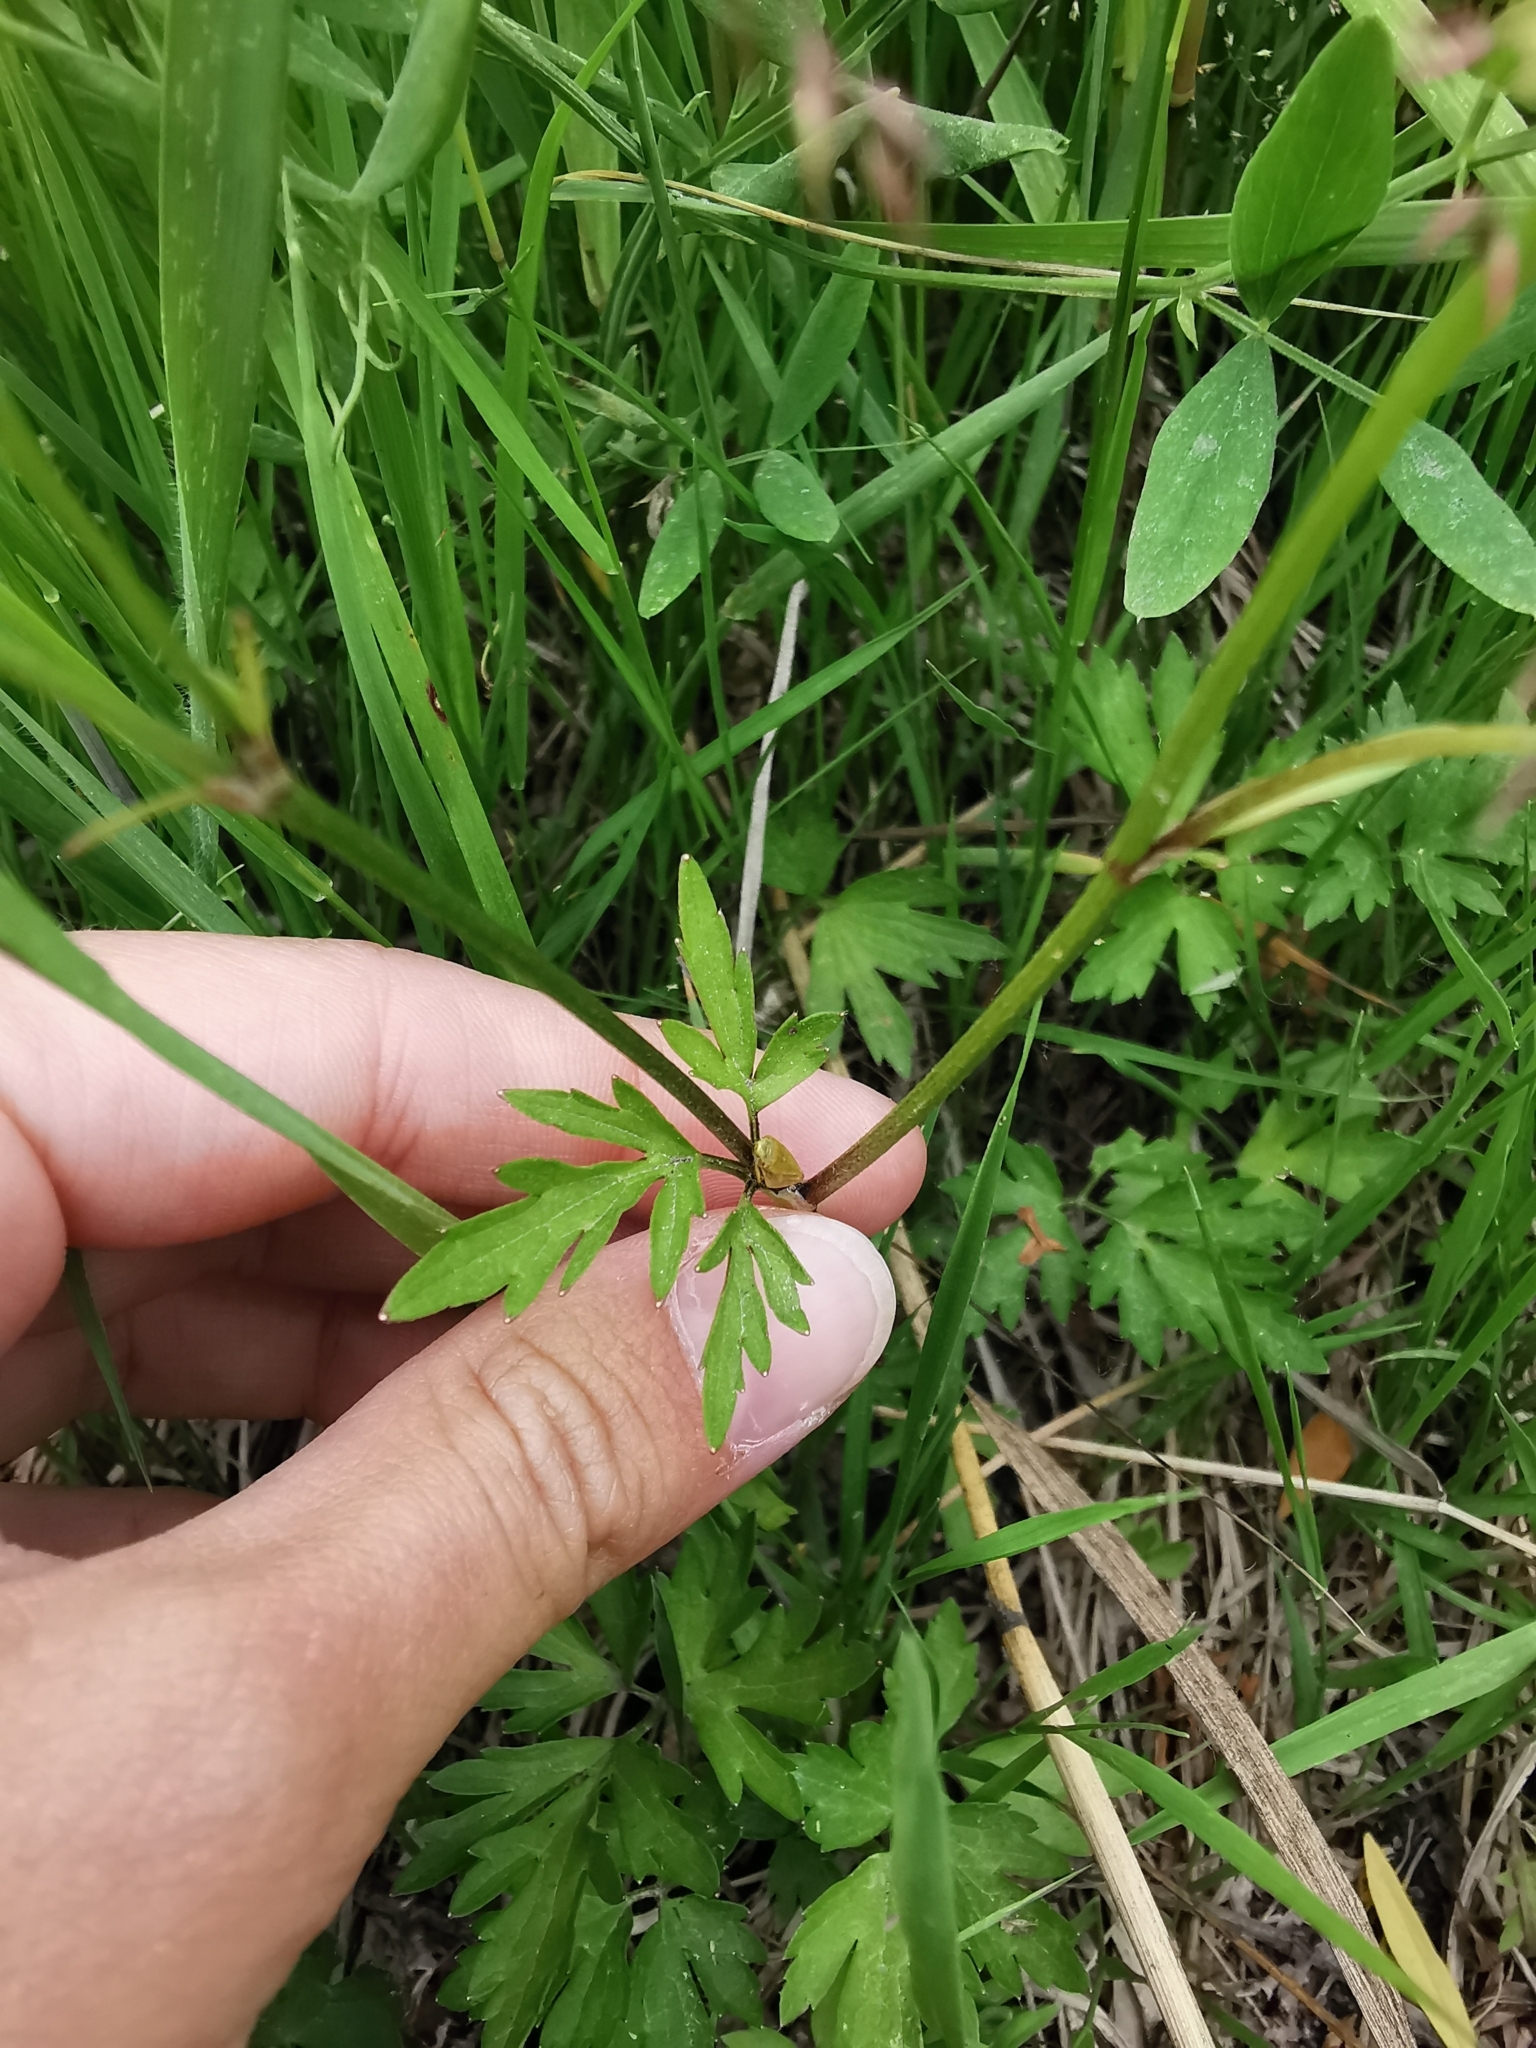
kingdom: Plantae
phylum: Tracheophyta
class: Magnoliopsida
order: Ranunculales
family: Ranunculaceae
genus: Ranunculus
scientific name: Ranunculus repens
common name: Creeping buttercup
